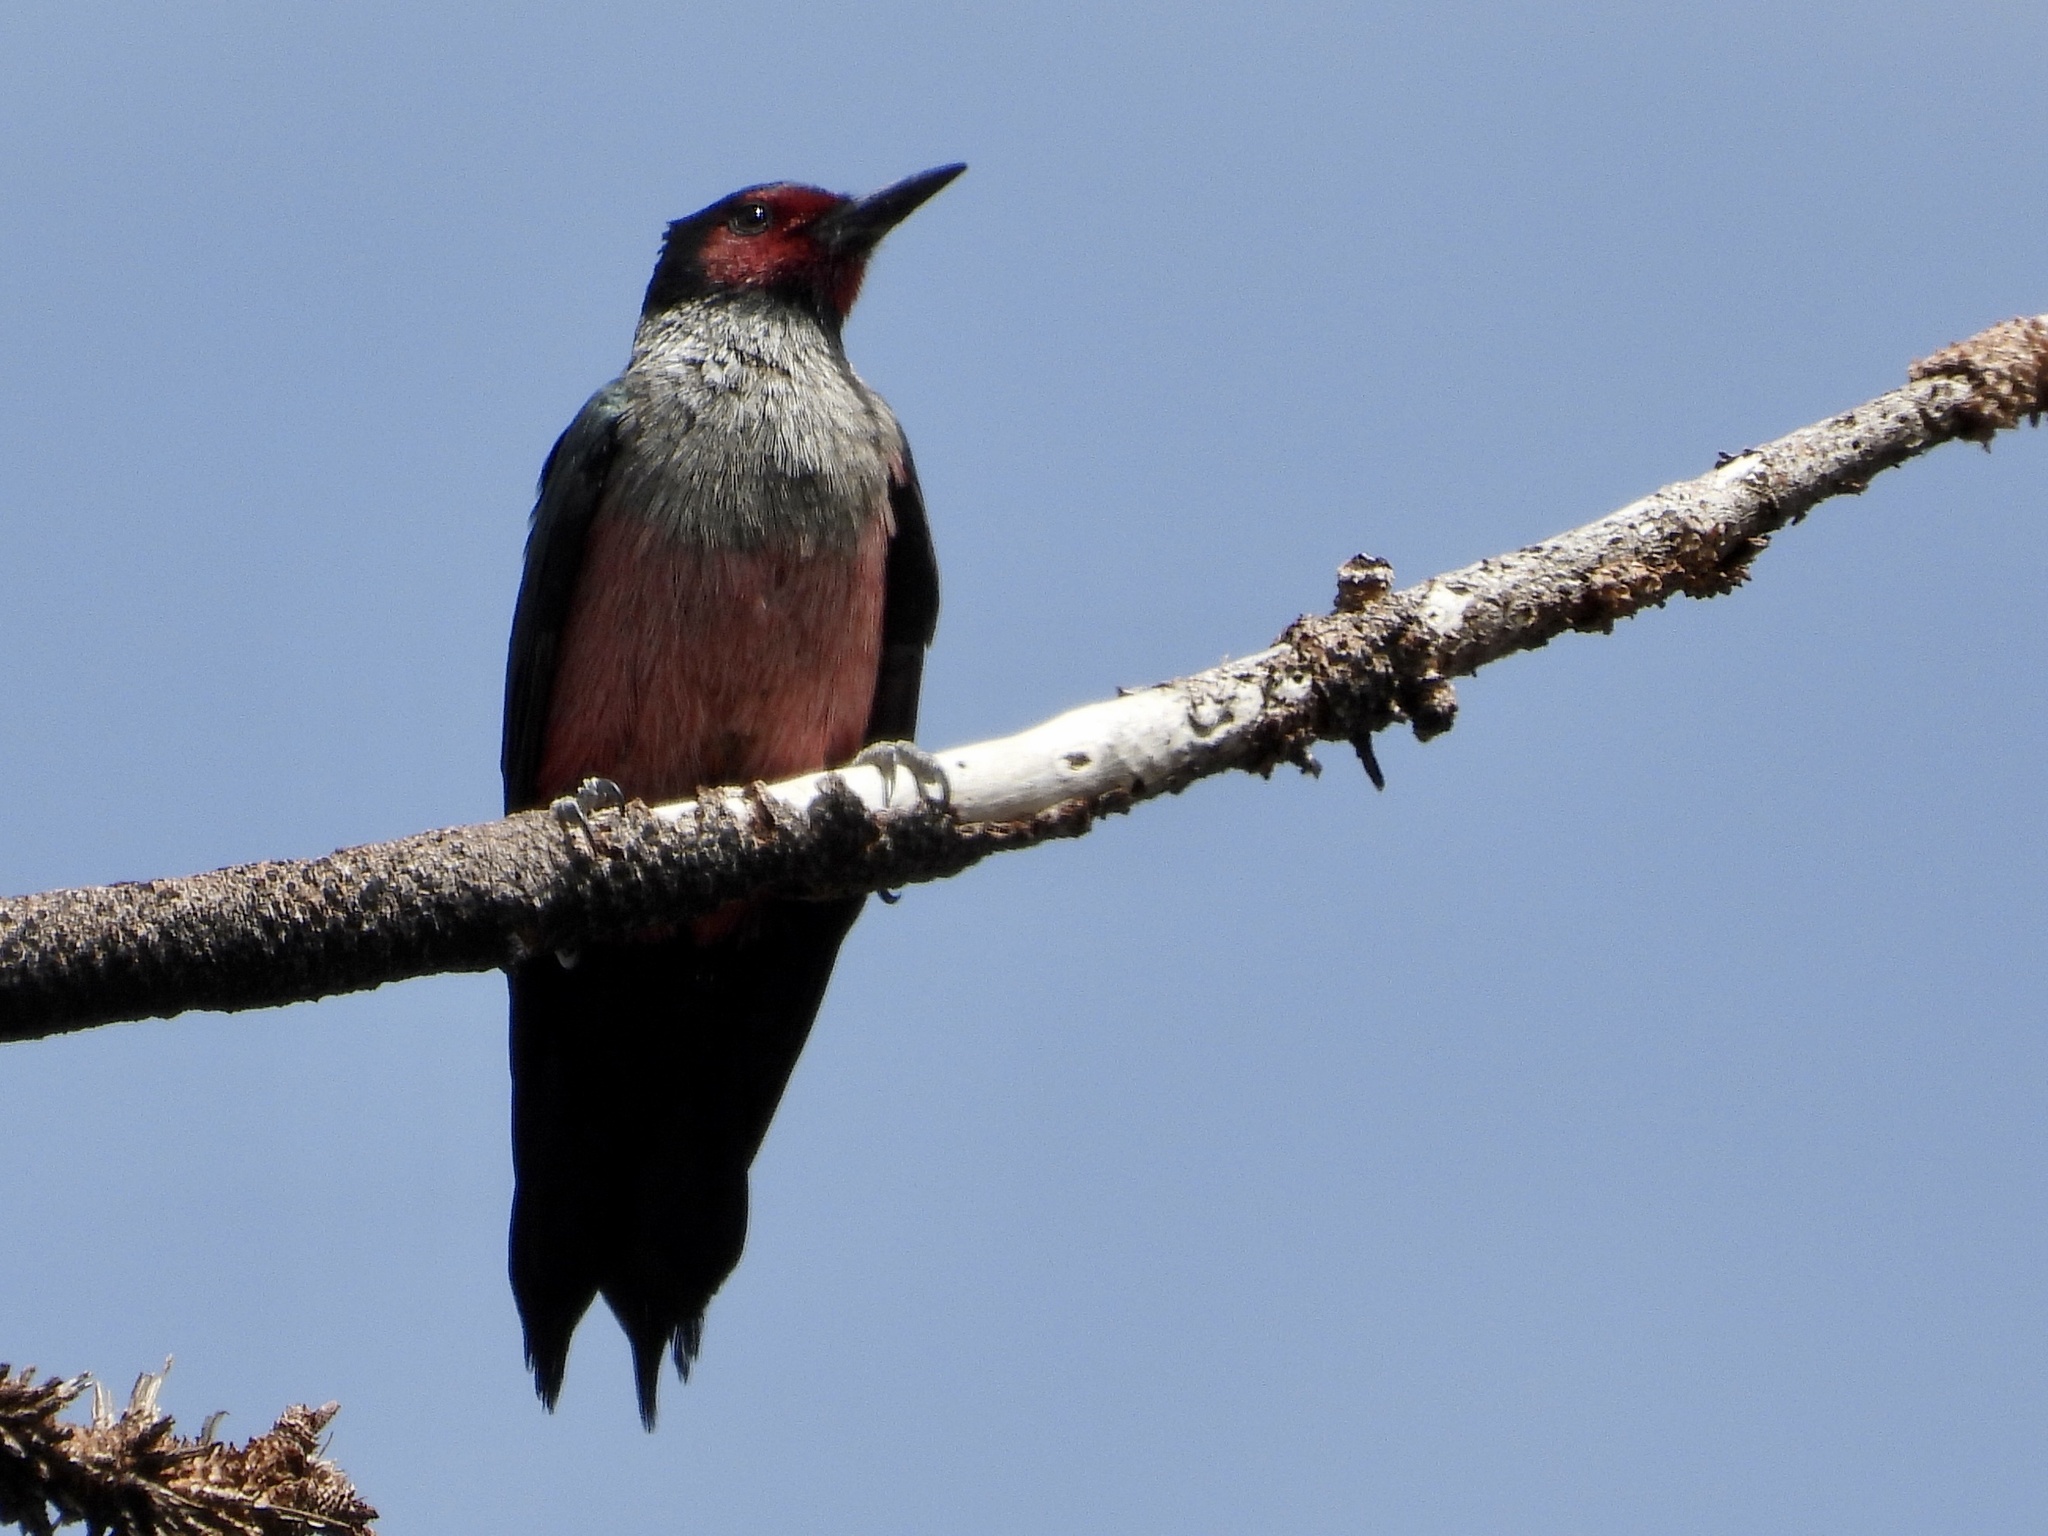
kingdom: Animalia
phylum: Chordata
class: Aves
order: Piciformes
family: Picidae
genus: Melanerpes
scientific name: Melanerpes lewis
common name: Lewis's woodpecker
